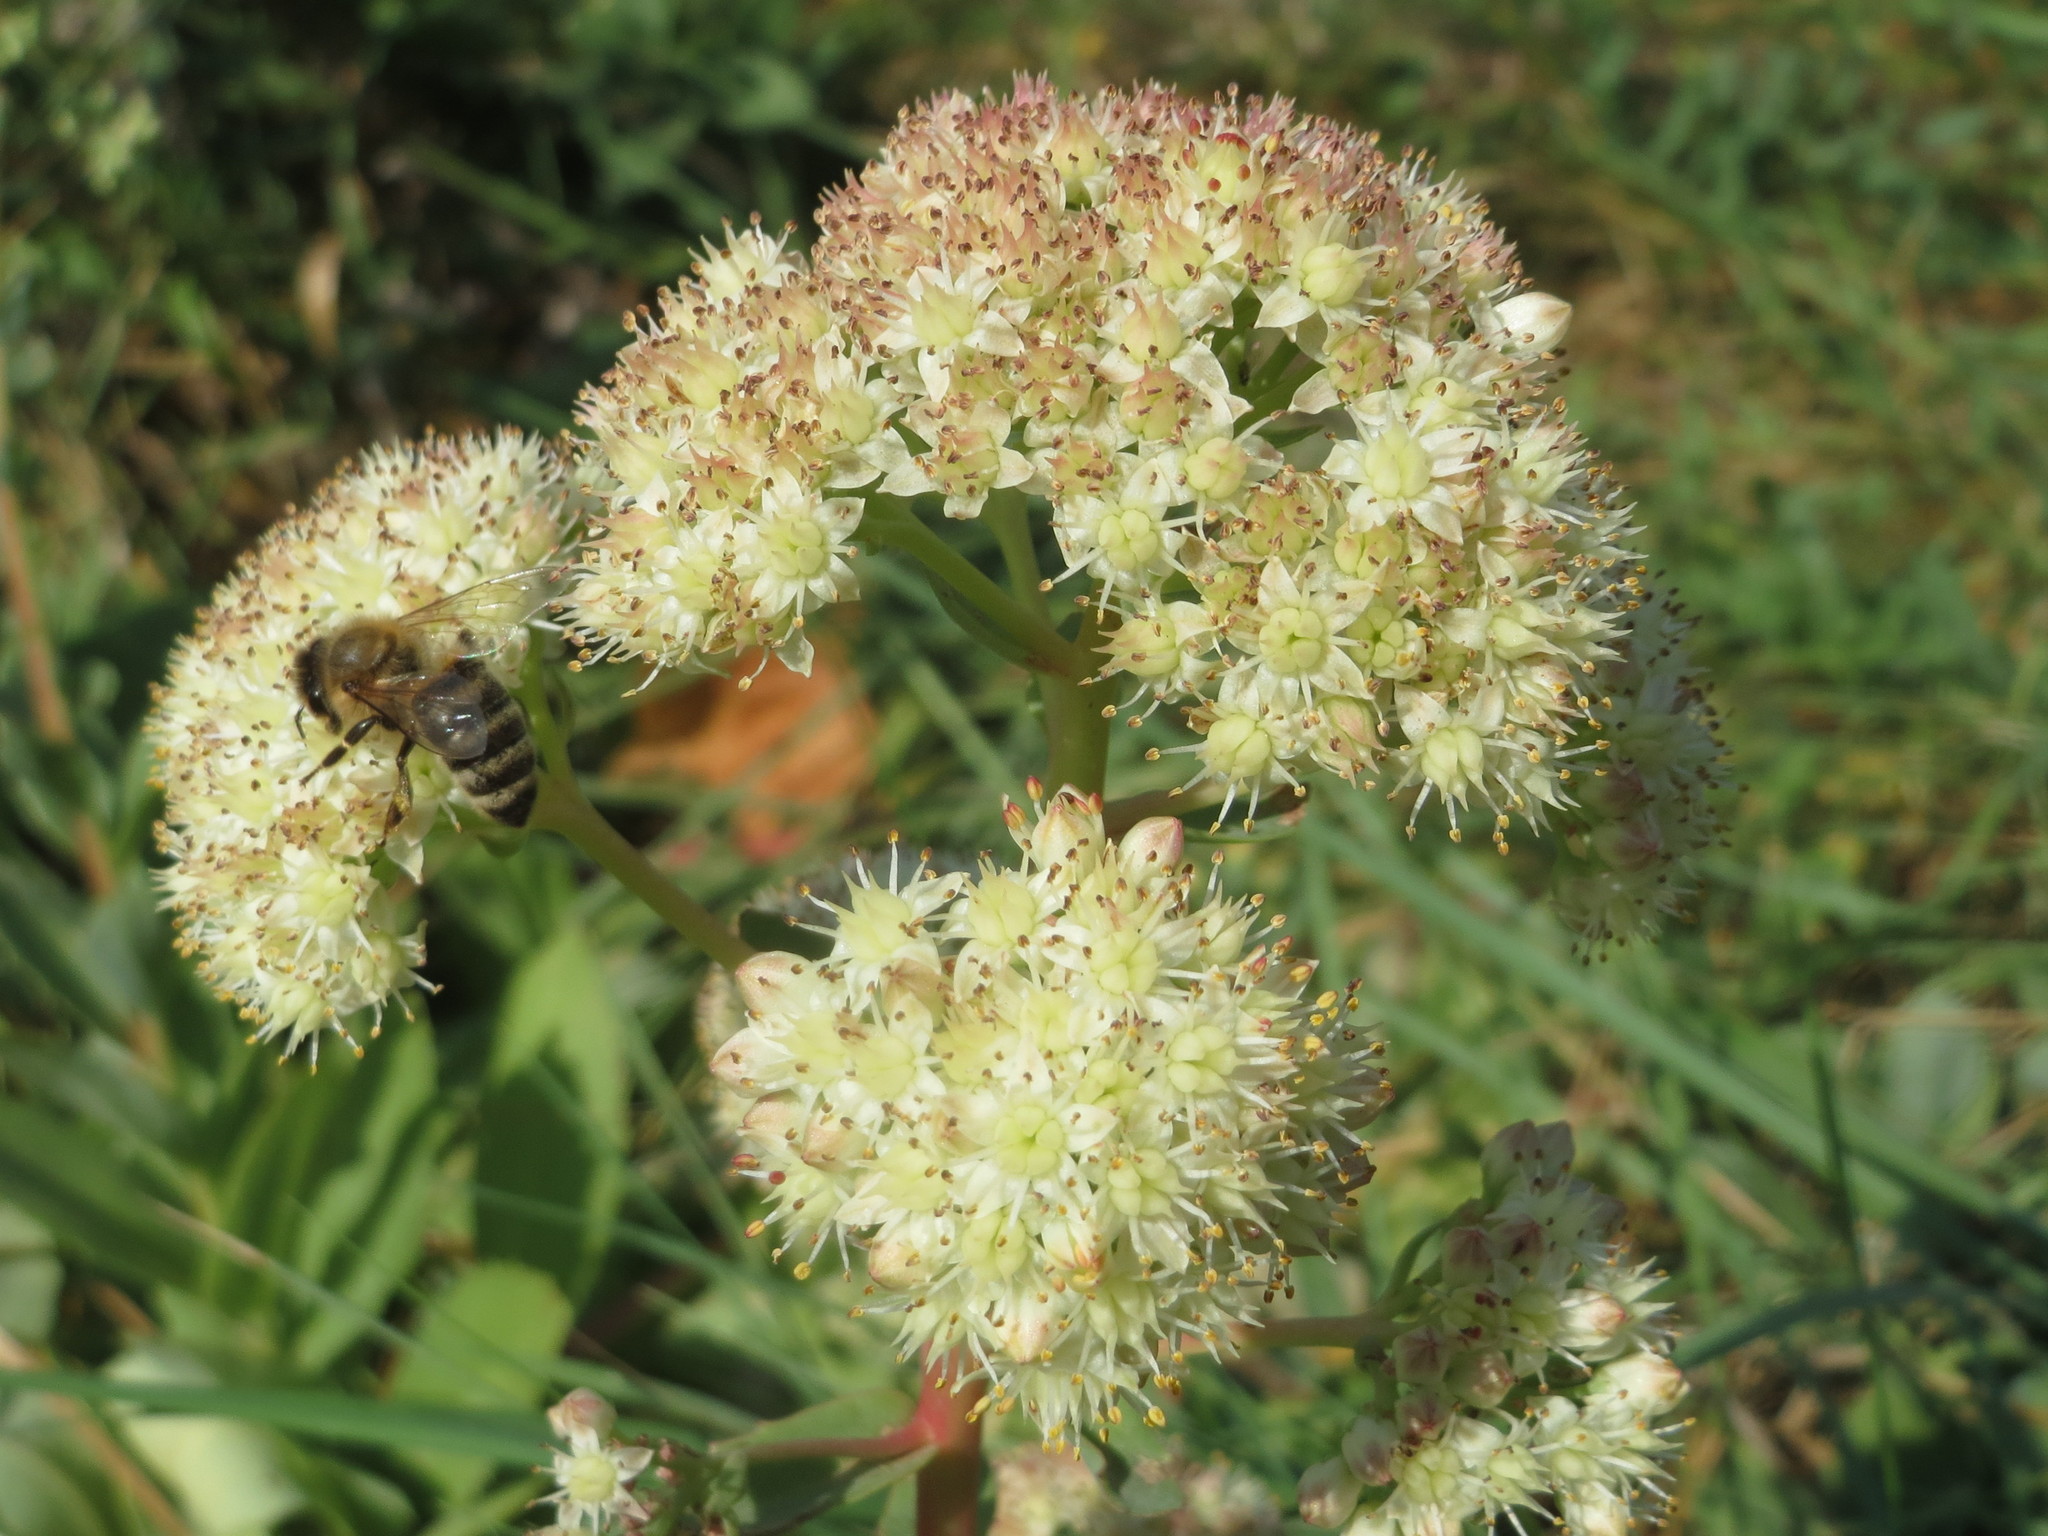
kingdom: Plantae
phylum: Tracheophyta
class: Magnoliopsida
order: Saxifragales
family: Crassulaceae
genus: Hylotelephium
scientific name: Hylotelephium maximum
